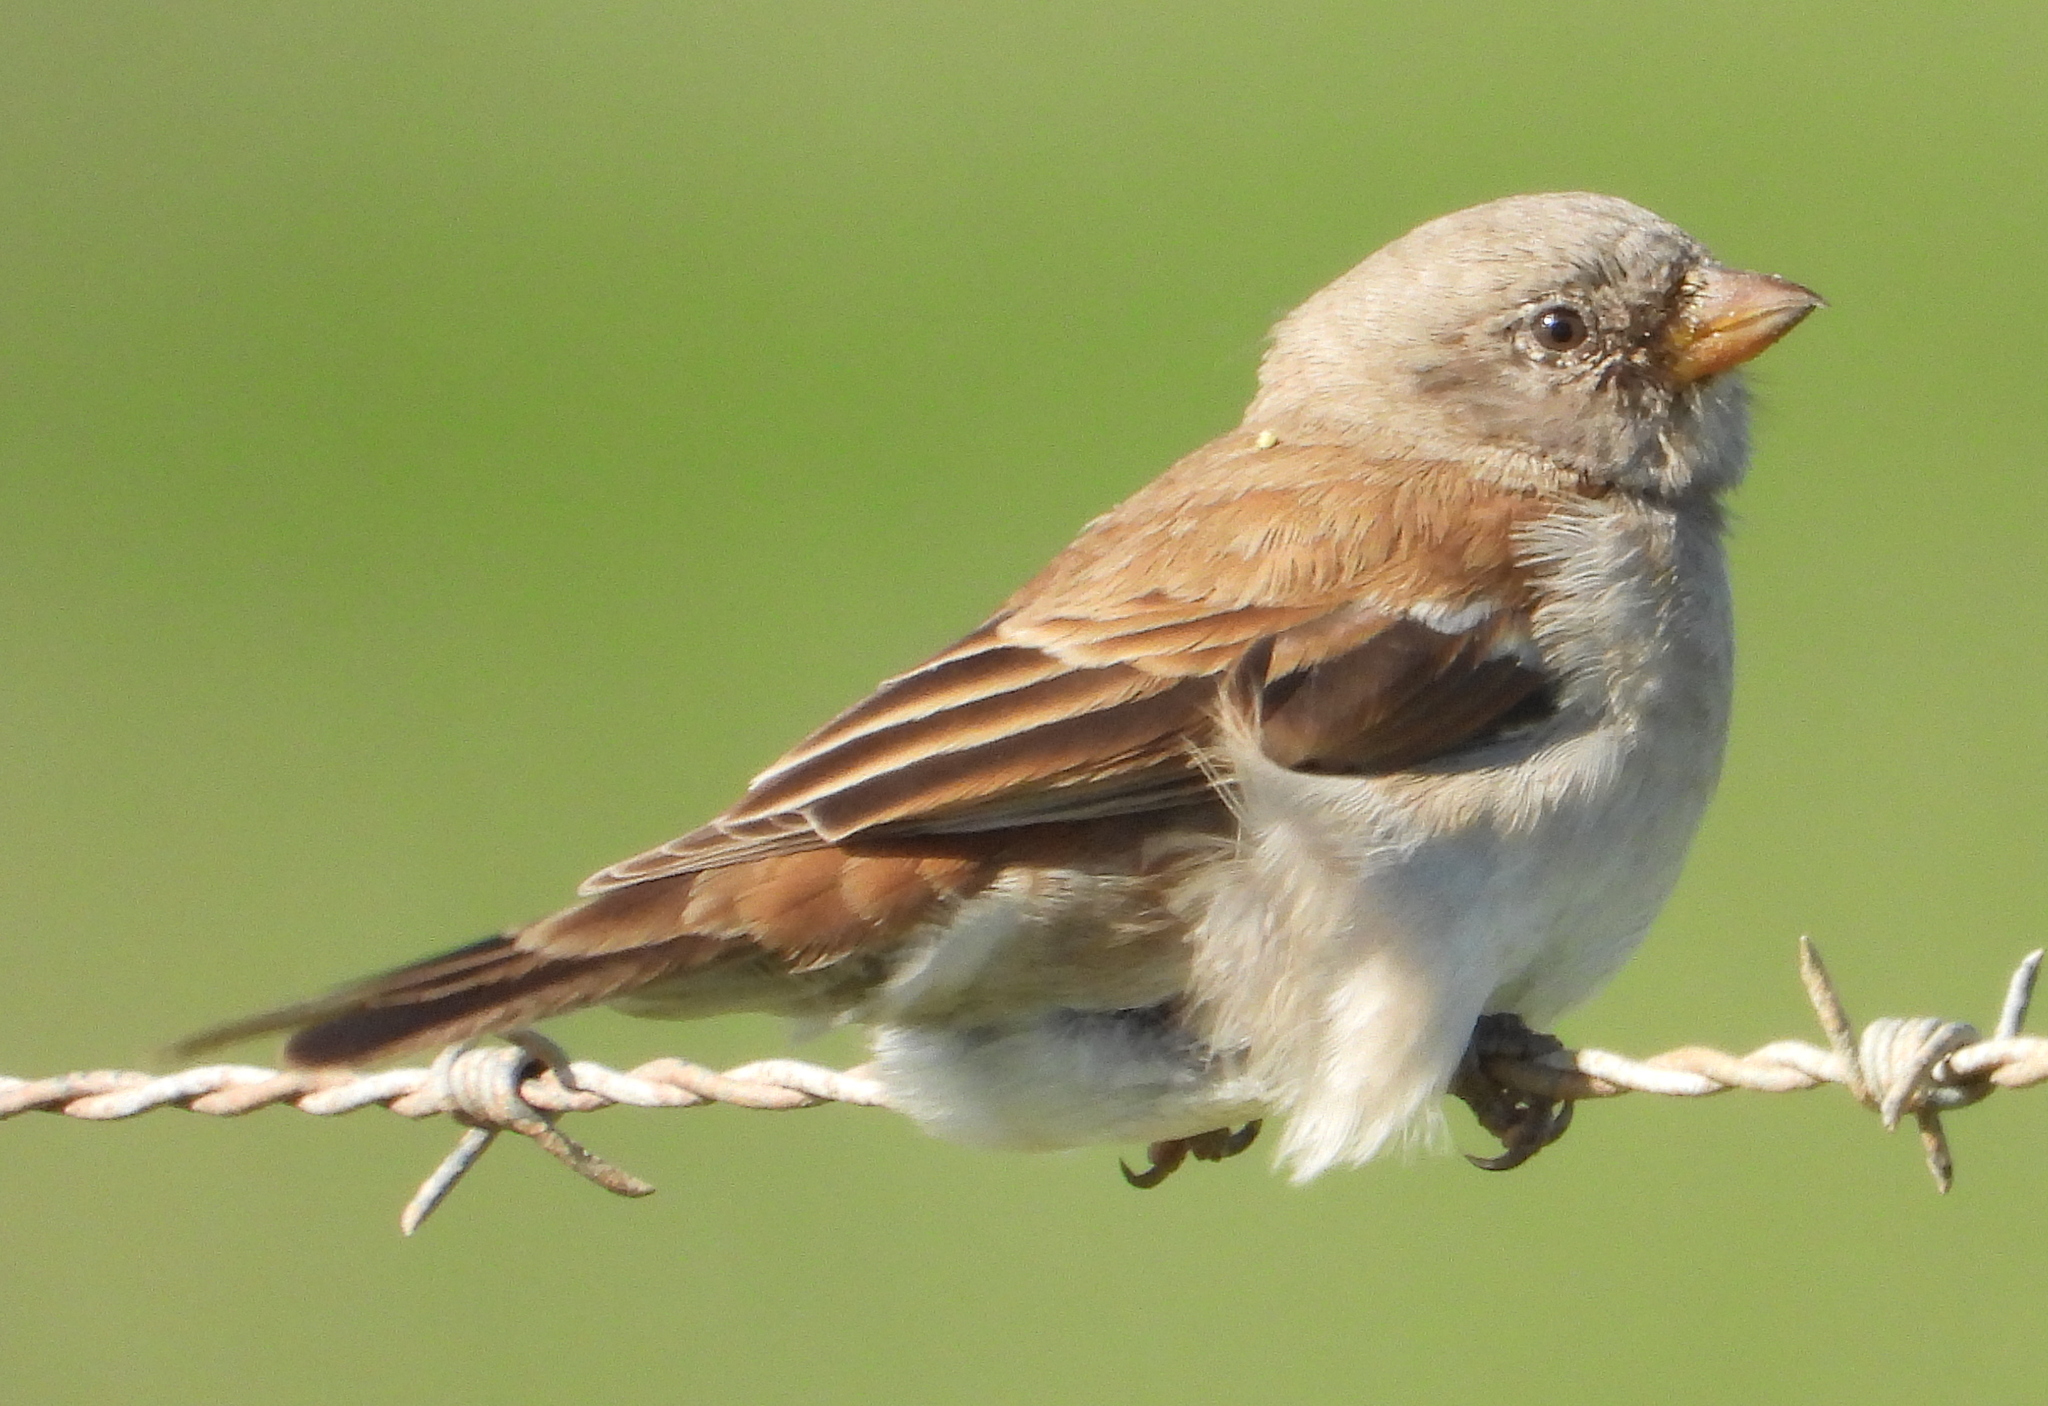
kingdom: Animalia
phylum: Chordata
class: Aves
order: Passeriformes
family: Passeridae
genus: Passer
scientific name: Passer diffusus
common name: Southern grey-headed sparrow
